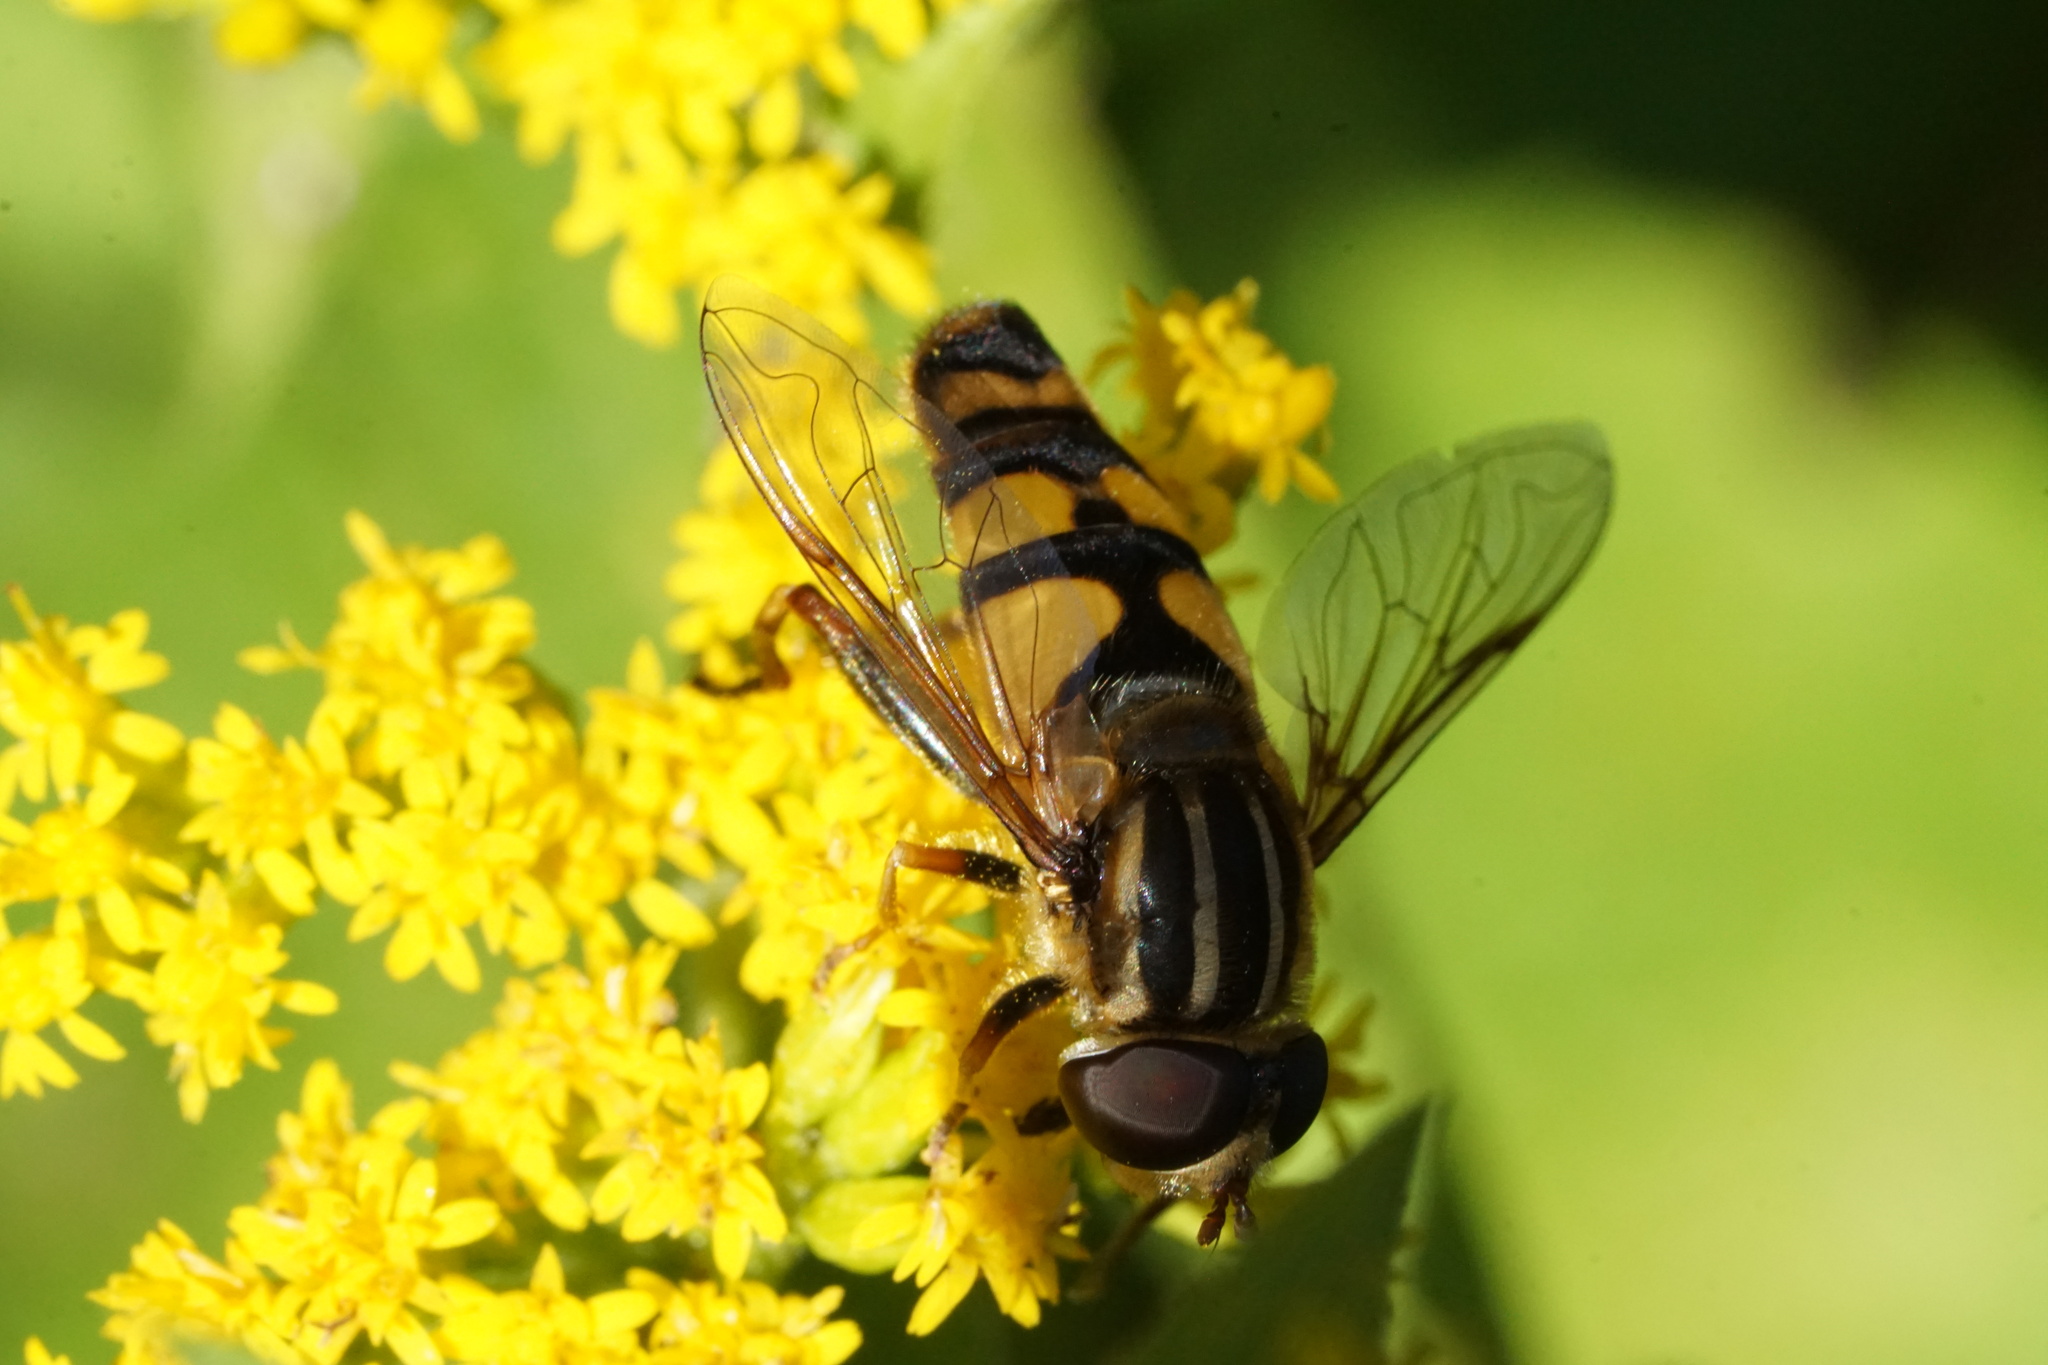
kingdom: Animalia
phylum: Arthropoda
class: Insecta
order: Diptera
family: Syrphidae
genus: Helophilus
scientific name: Helophilus fasciatus
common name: Narrow-headed marsh fly
